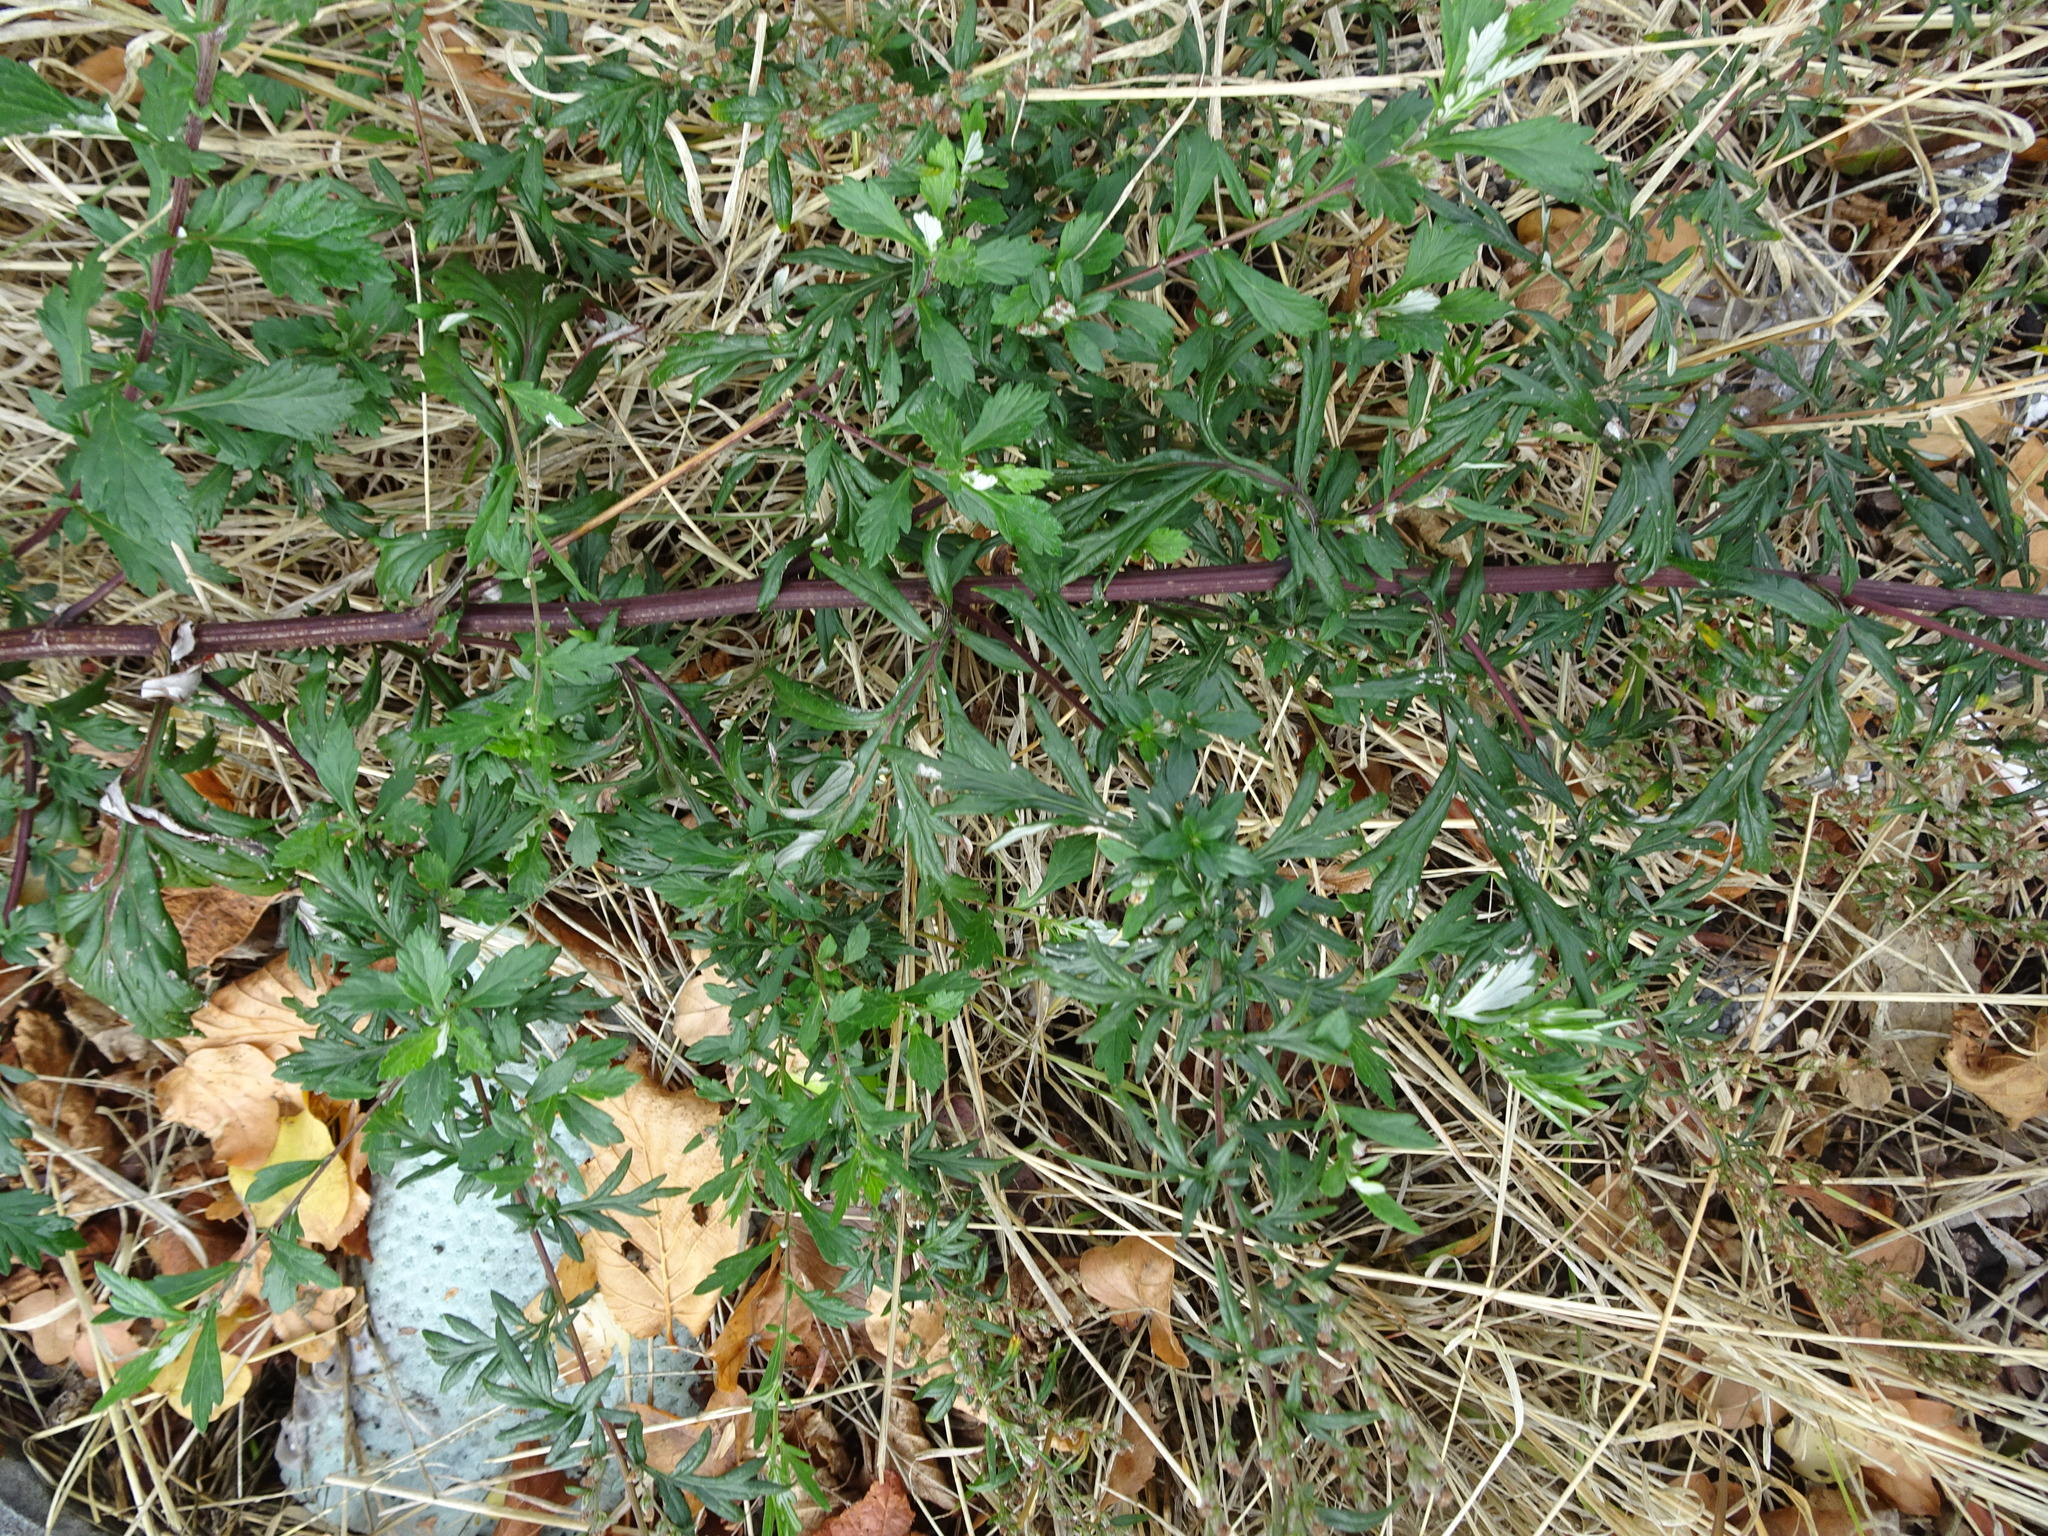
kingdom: Plantae
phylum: Tracheophyta
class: Magnoliopsida
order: Asterales
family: Asteraceae
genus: Artemisia
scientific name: Artemisia vulgaris
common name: Mugwort
